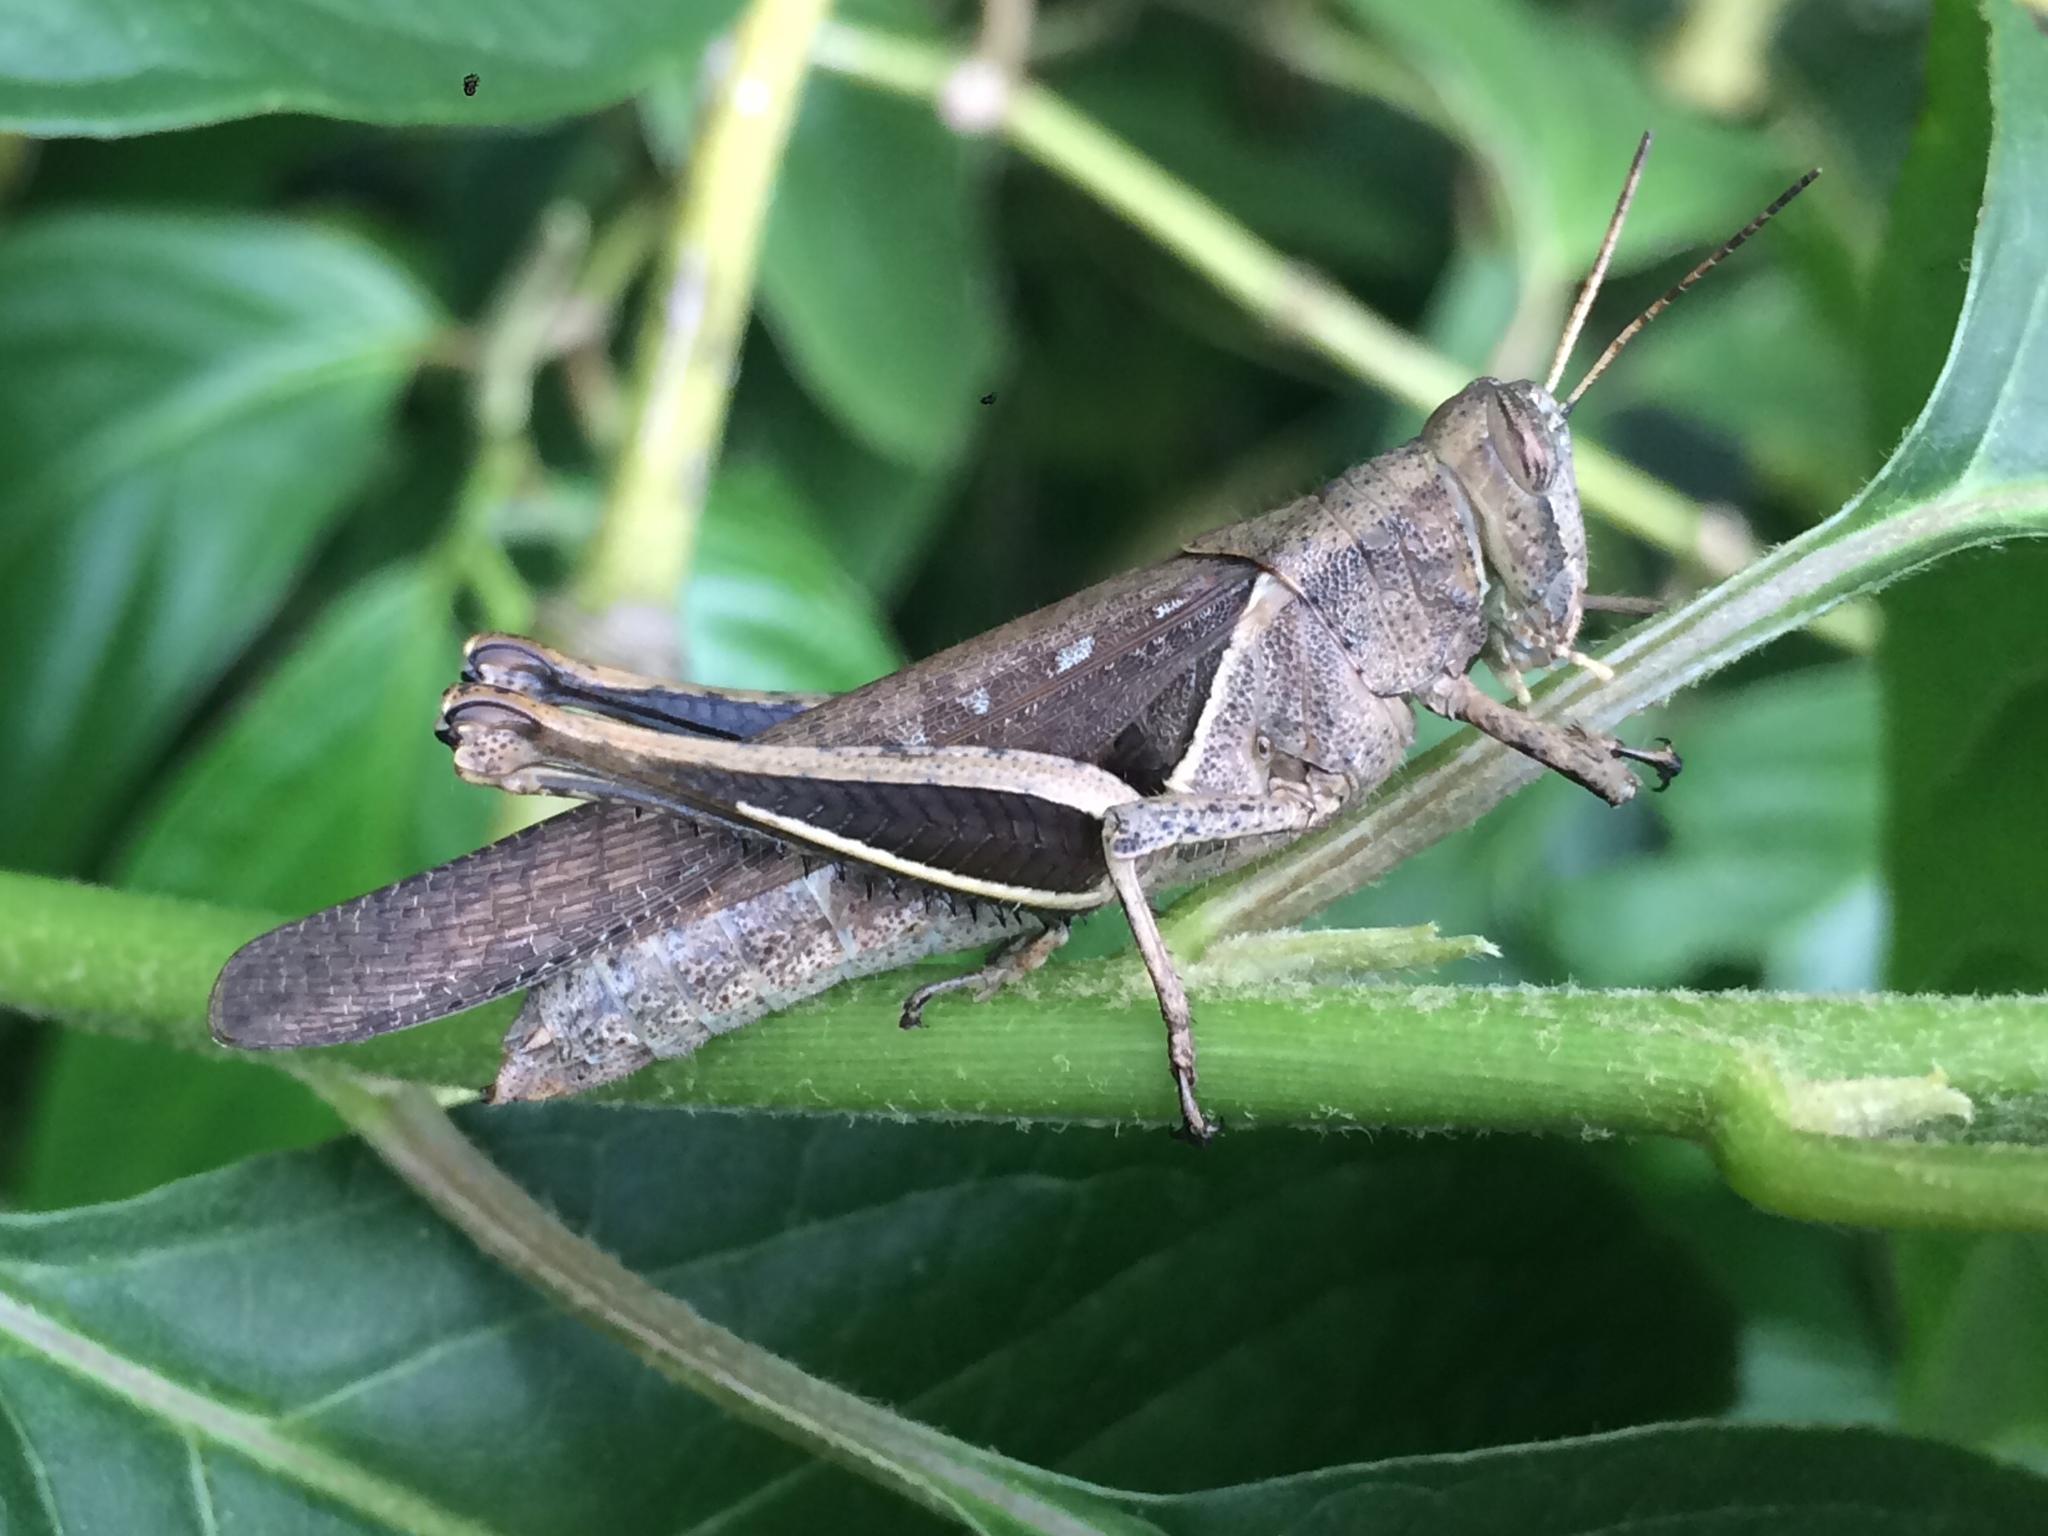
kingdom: Animalia
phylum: Arthropoda
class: Insecta
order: Orthoptera
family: Acrididae
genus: Abracris
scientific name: Abracris flavolineata
